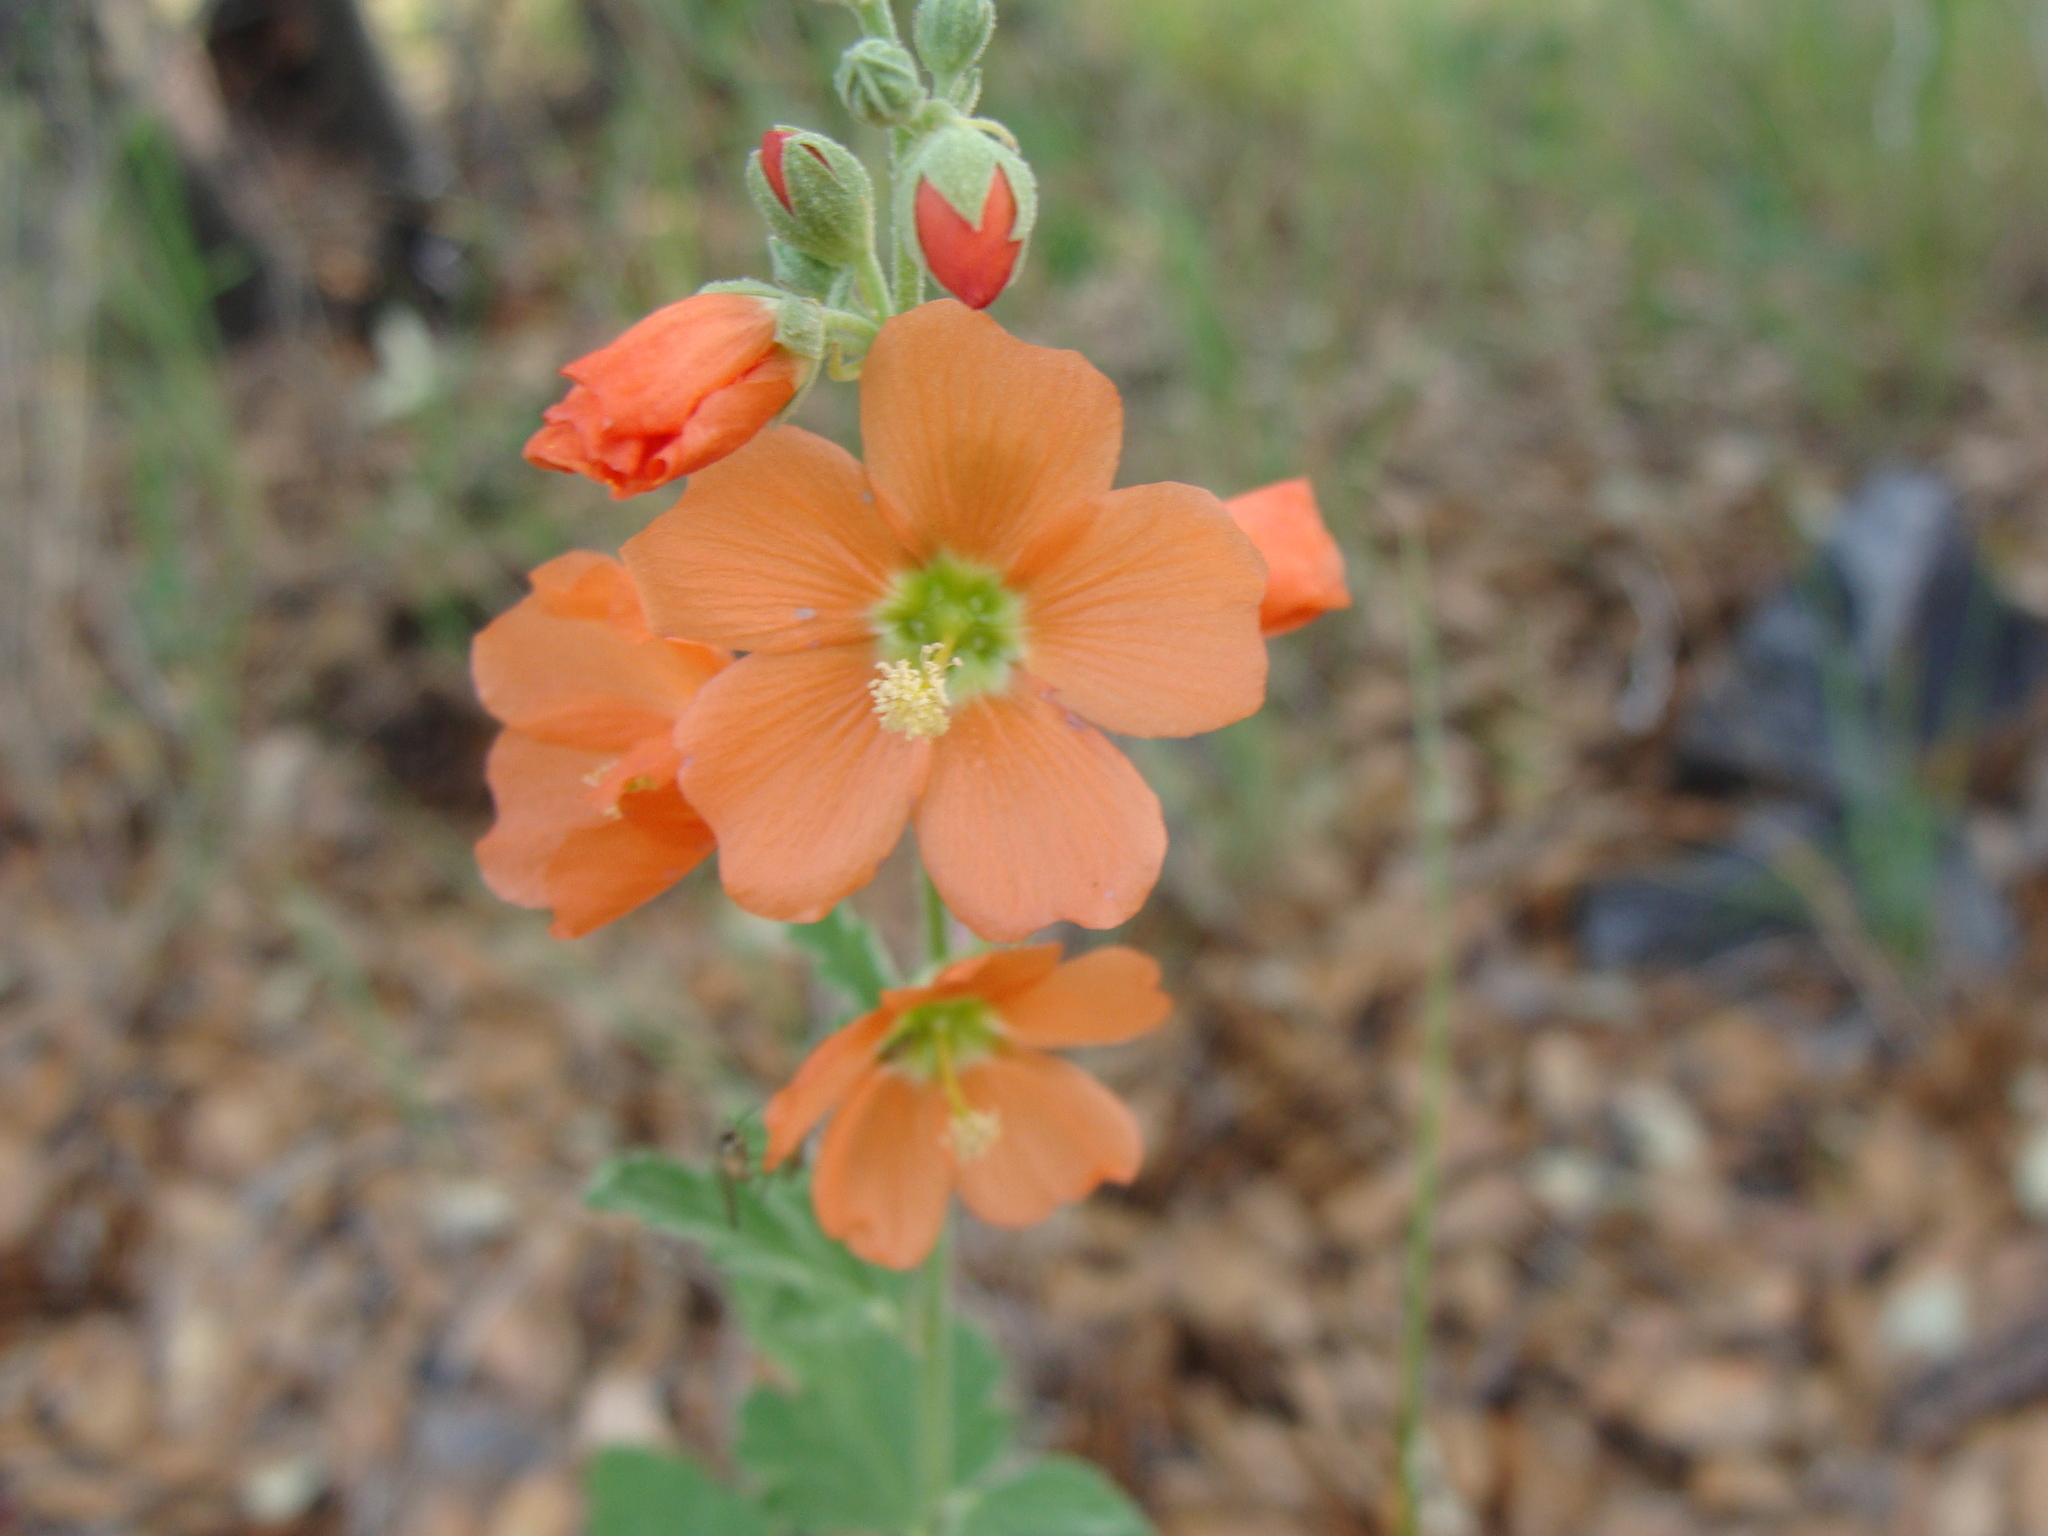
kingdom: Plantae
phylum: Tracheophyta
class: Magnoliopsida
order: Malvales
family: Malvaceae
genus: Sphaeralcea
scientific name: Sphaeralcea fendleri
